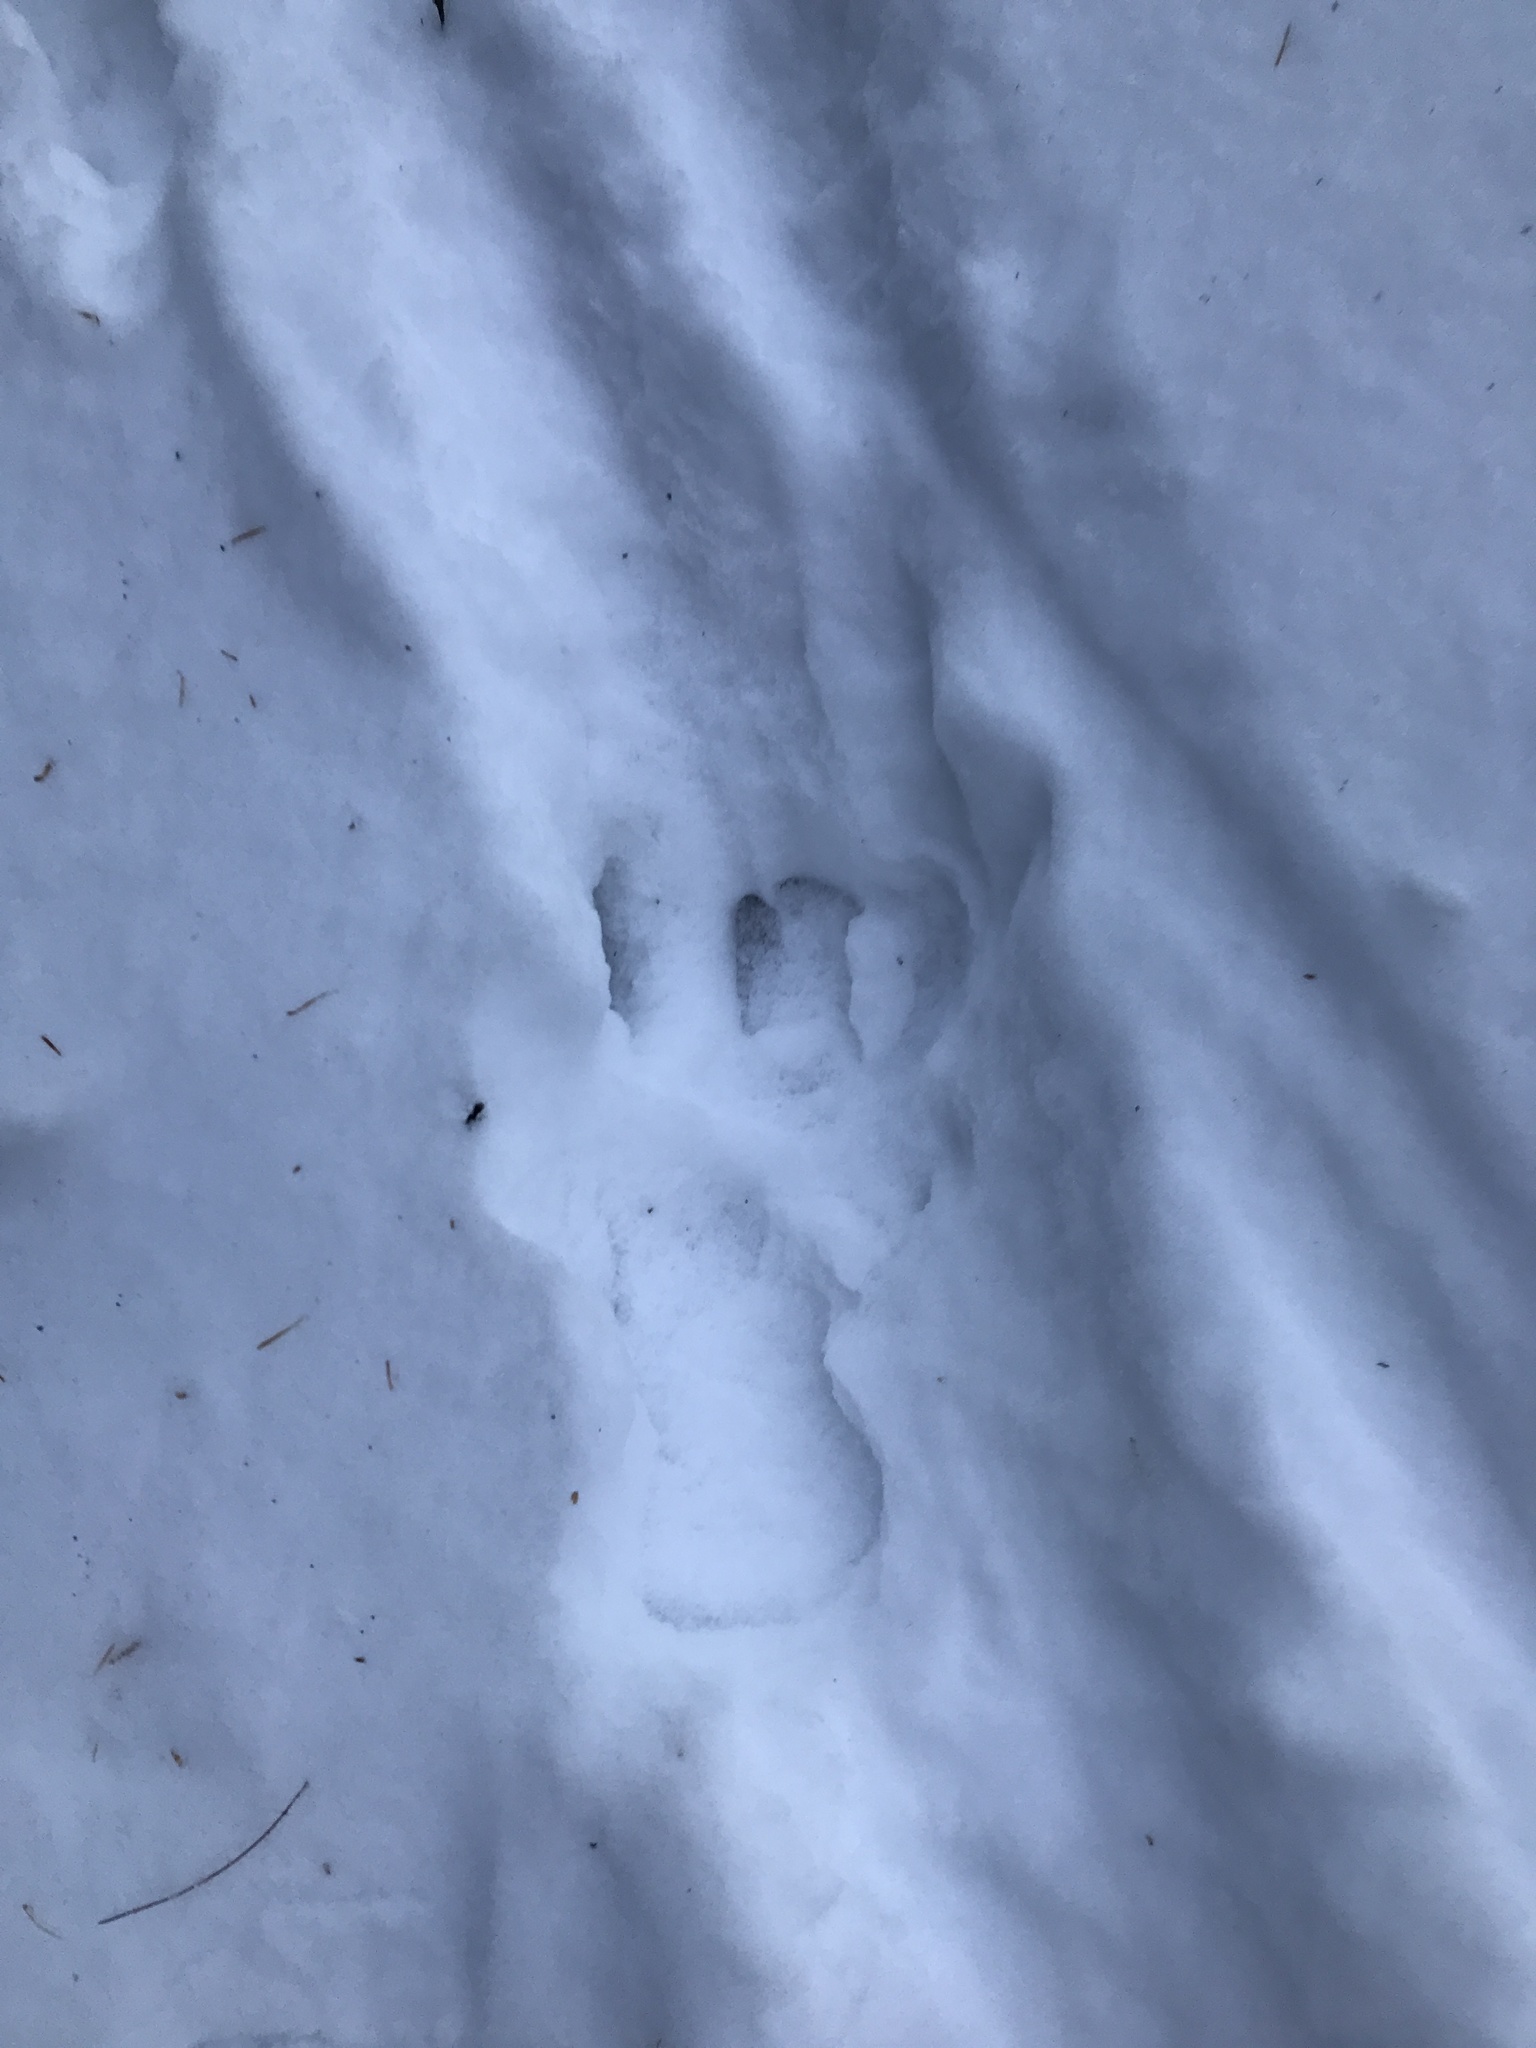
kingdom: Animalia
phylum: Chordata
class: Mammalia
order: Artiodactyla
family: Cervidae
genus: Odocoileus
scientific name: Odocoileus virginianus
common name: White-tailed deer
